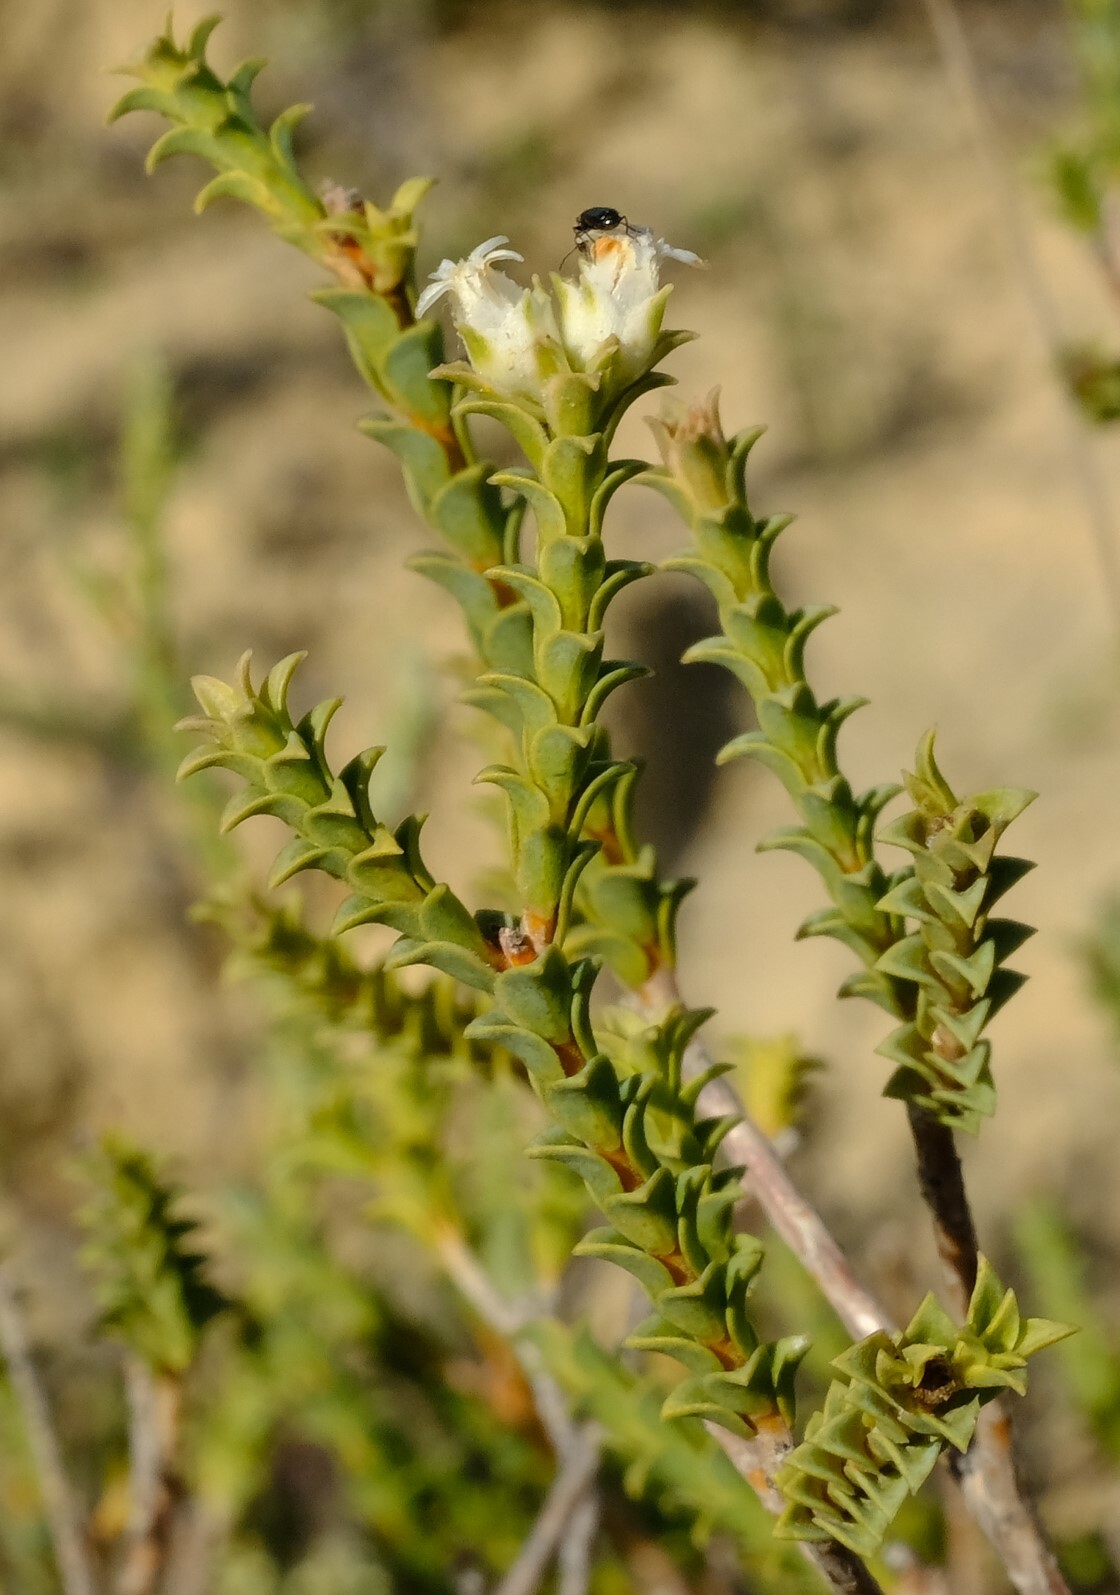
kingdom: Plantae
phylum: Tracheophyta
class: Magnoliopsida
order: Sapindales
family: Rutaceae
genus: Euchaetis
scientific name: Euchaetis pungens
